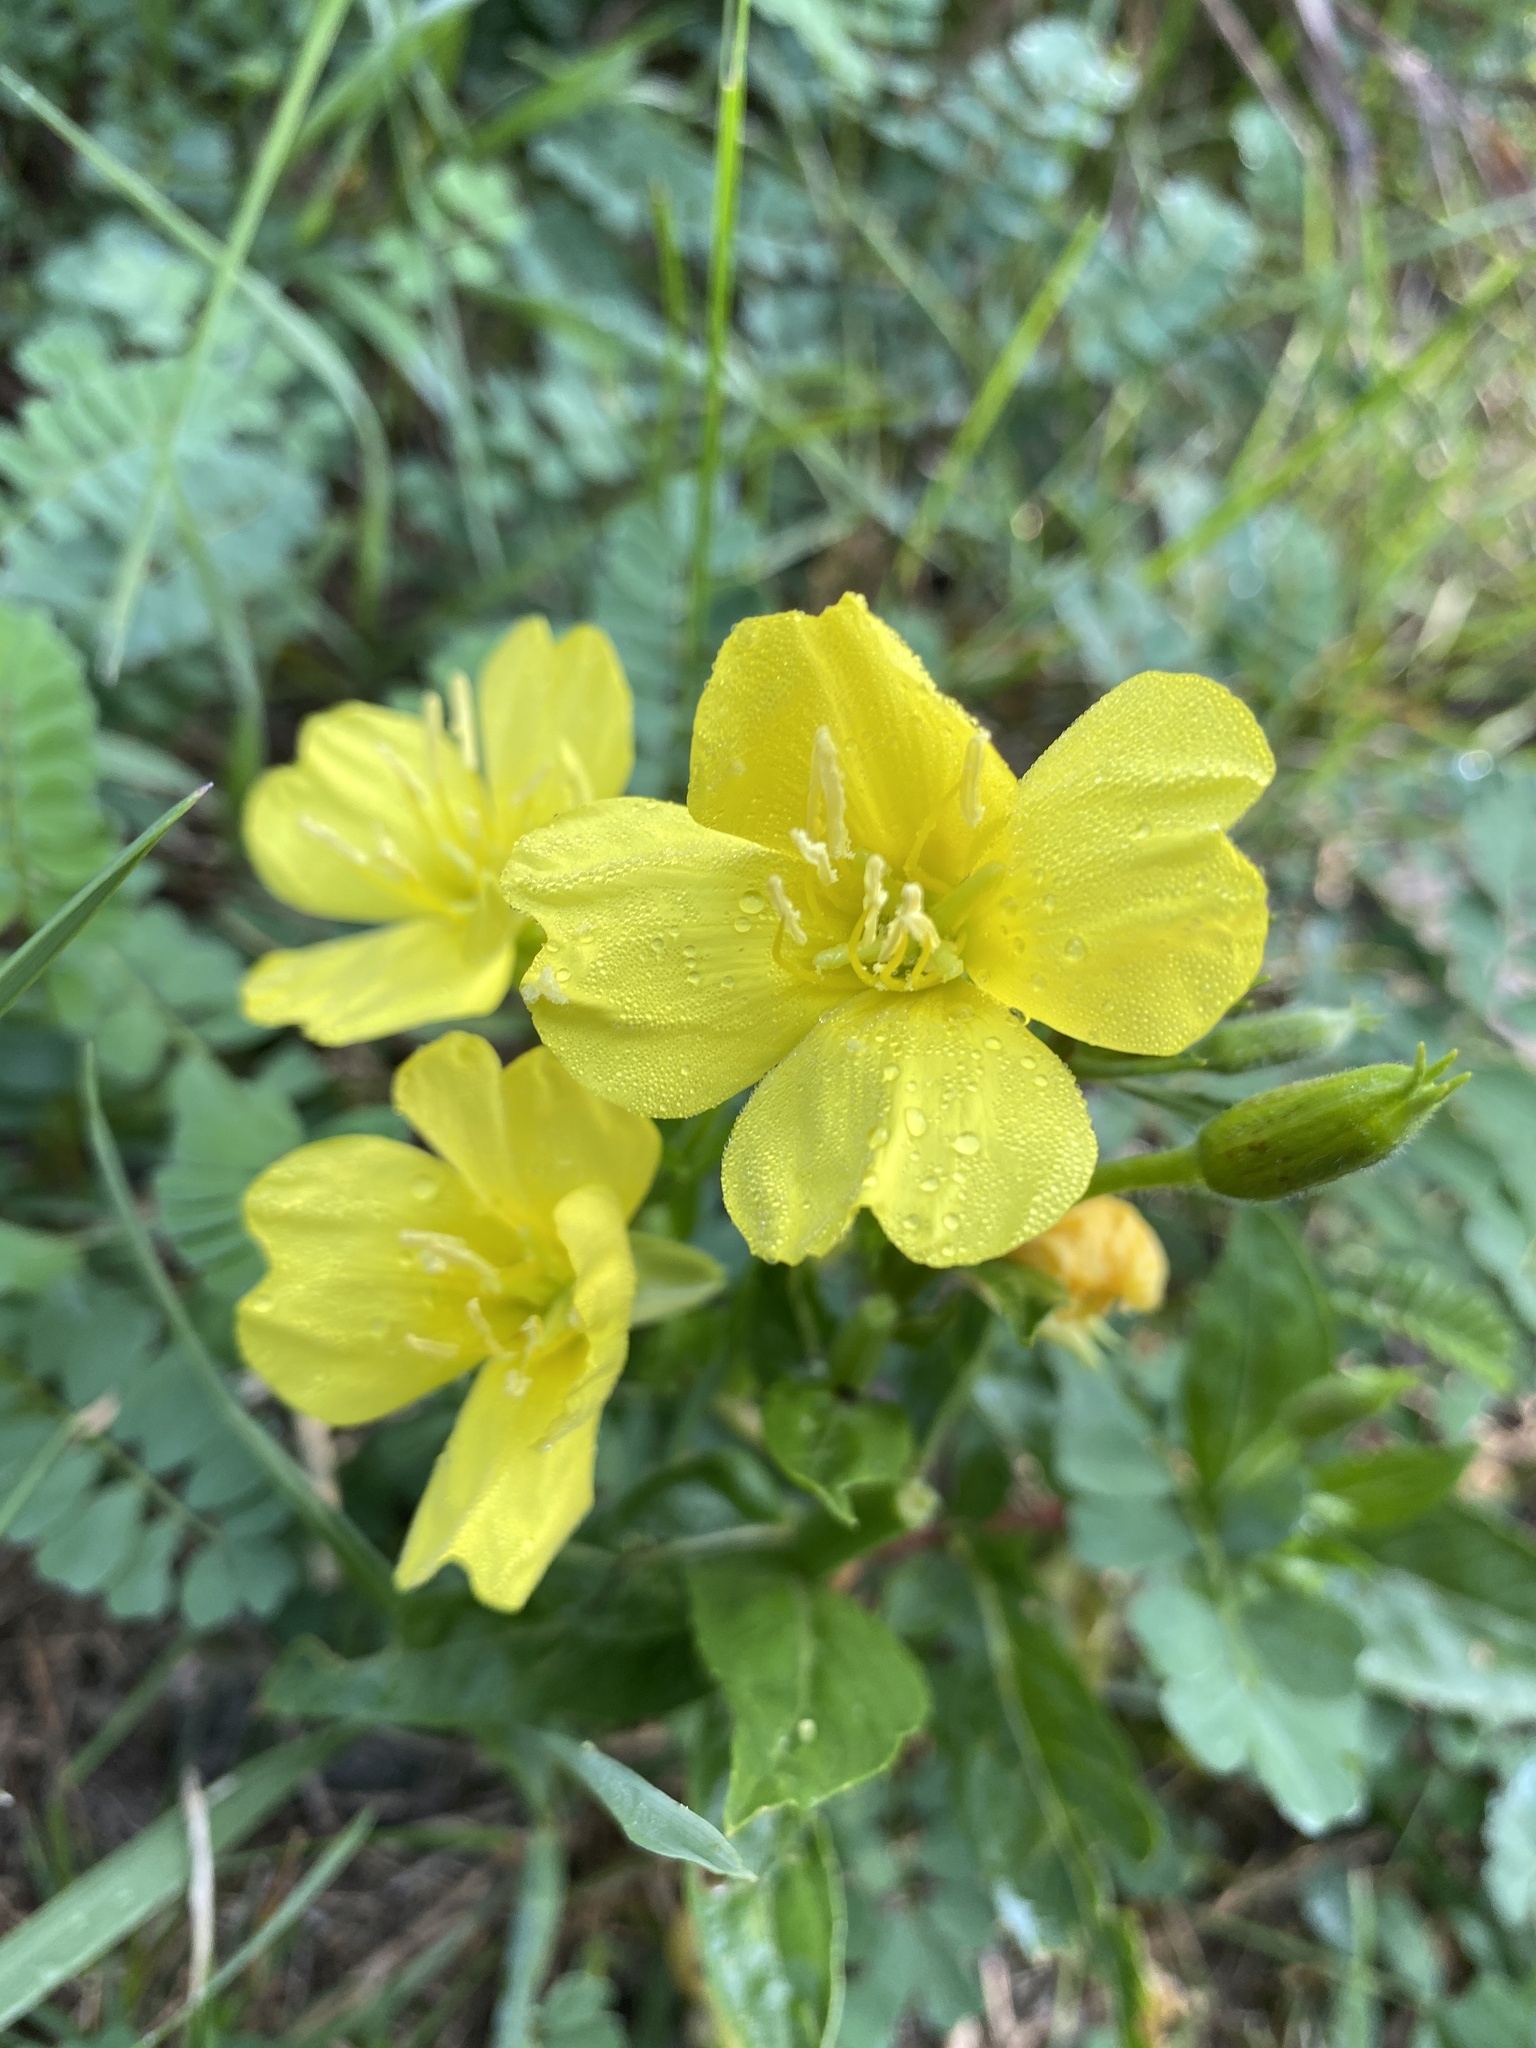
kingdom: Plantae
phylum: Tracheophyta
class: Magnoliopsida
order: Myrtales
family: Onagraceae
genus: Oenothera
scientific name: Oenothera parviflora
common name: Least evening-primrose
